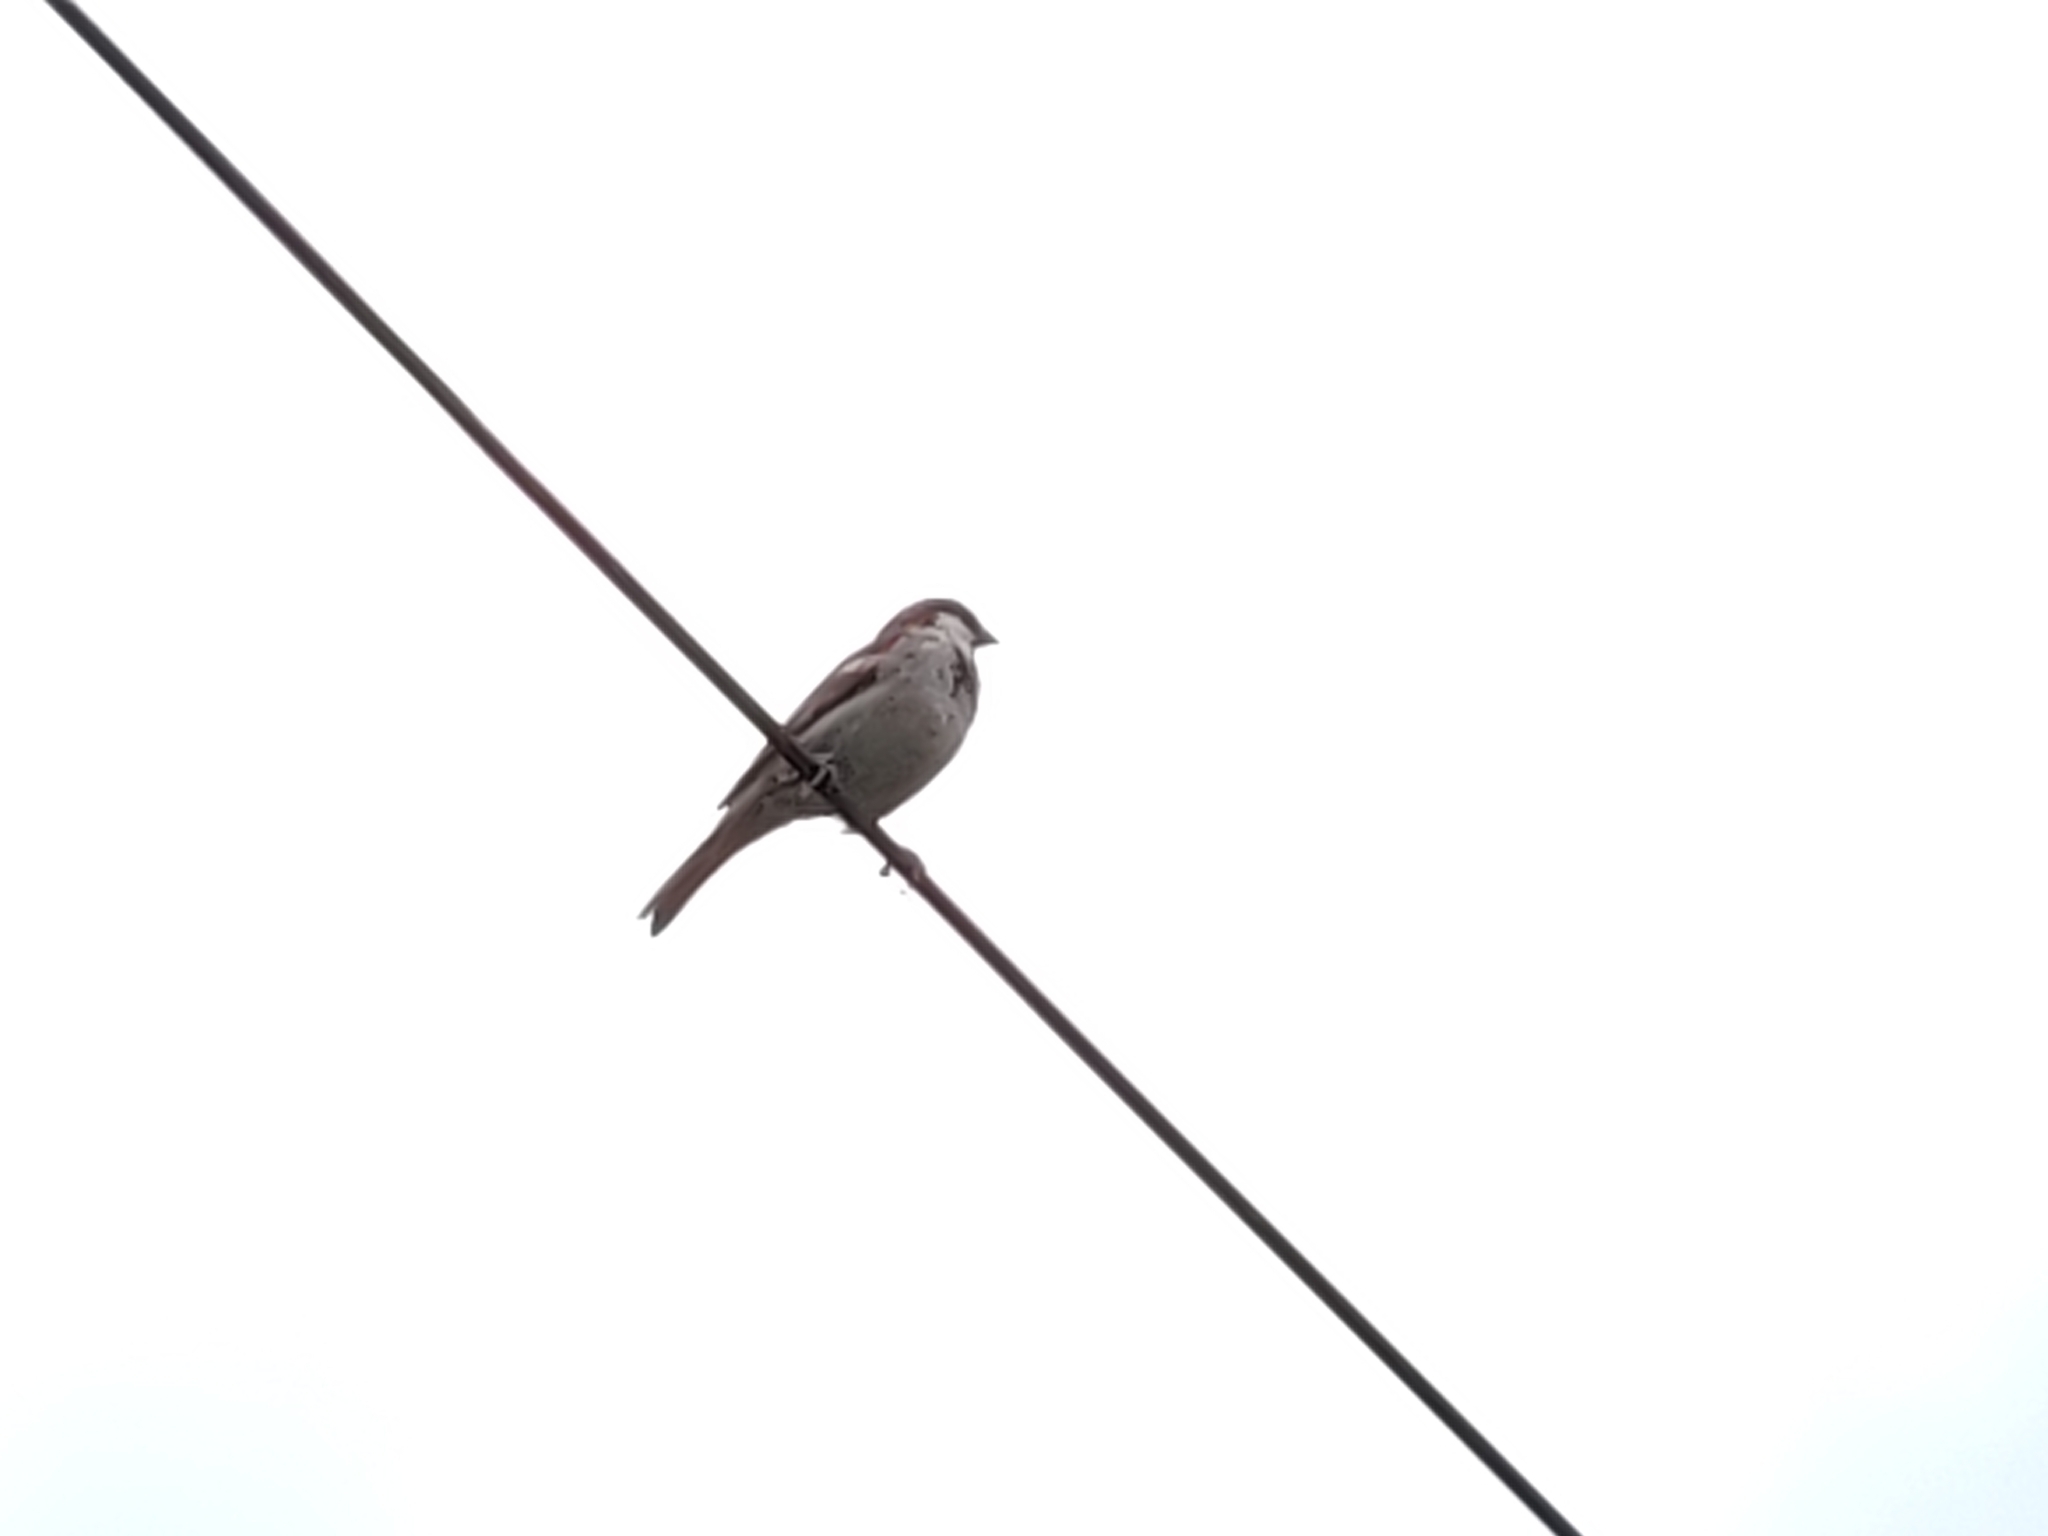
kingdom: Animalia
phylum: Chordata
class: Aves
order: Passeriformes
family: Passeridae
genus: Passer
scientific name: Passer domesticus
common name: House sparrow
